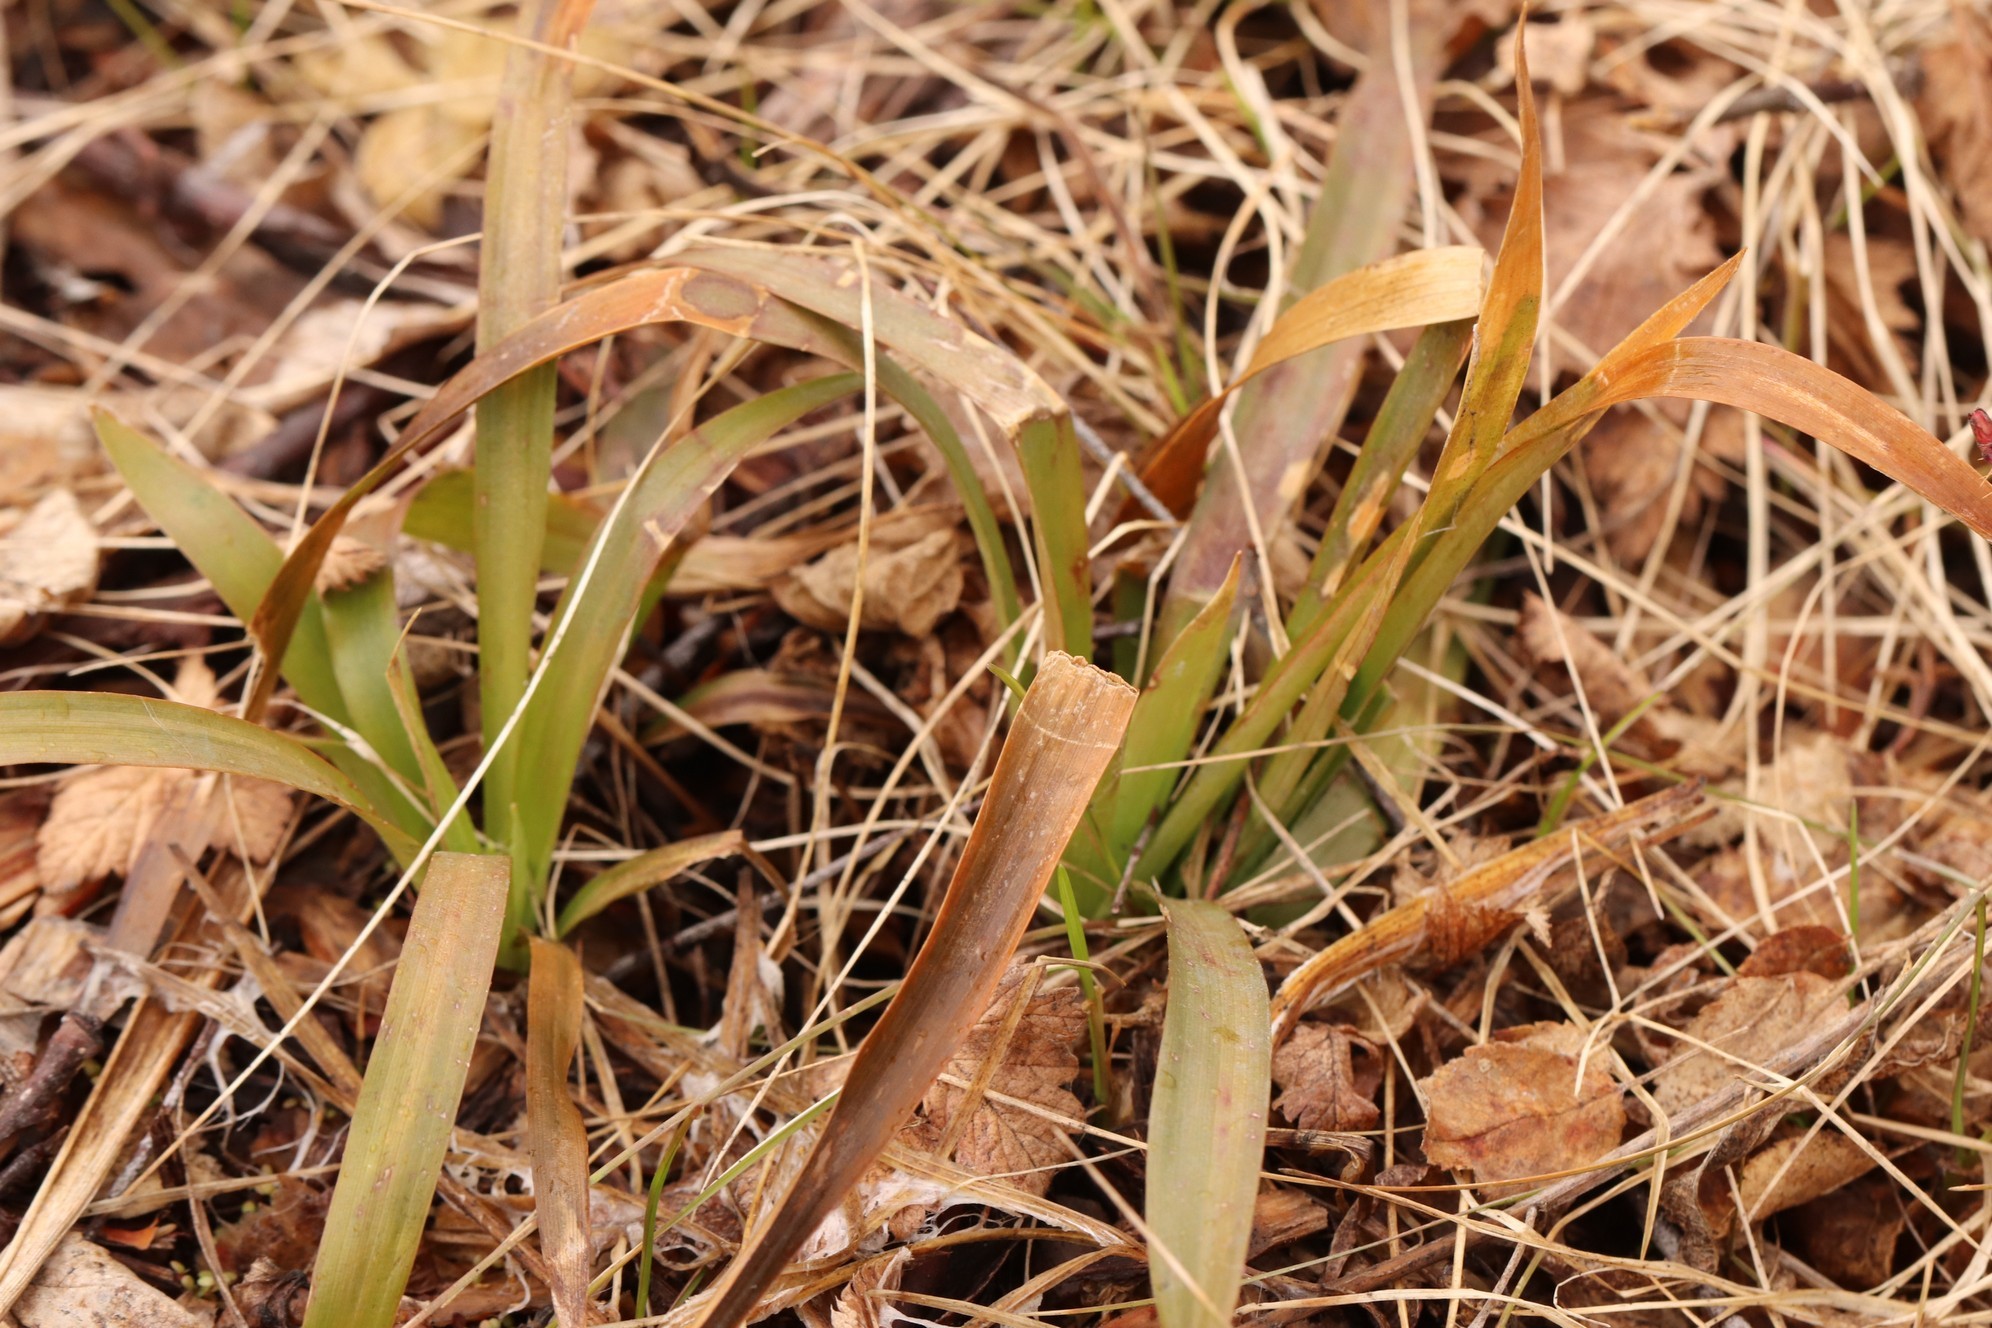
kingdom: Plantae
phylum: Tracheophyta
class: Liliopsida
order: Poales
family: Juncaceae
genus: Luzula
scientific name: Luzula pilosa
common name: Hairy wood-rush
